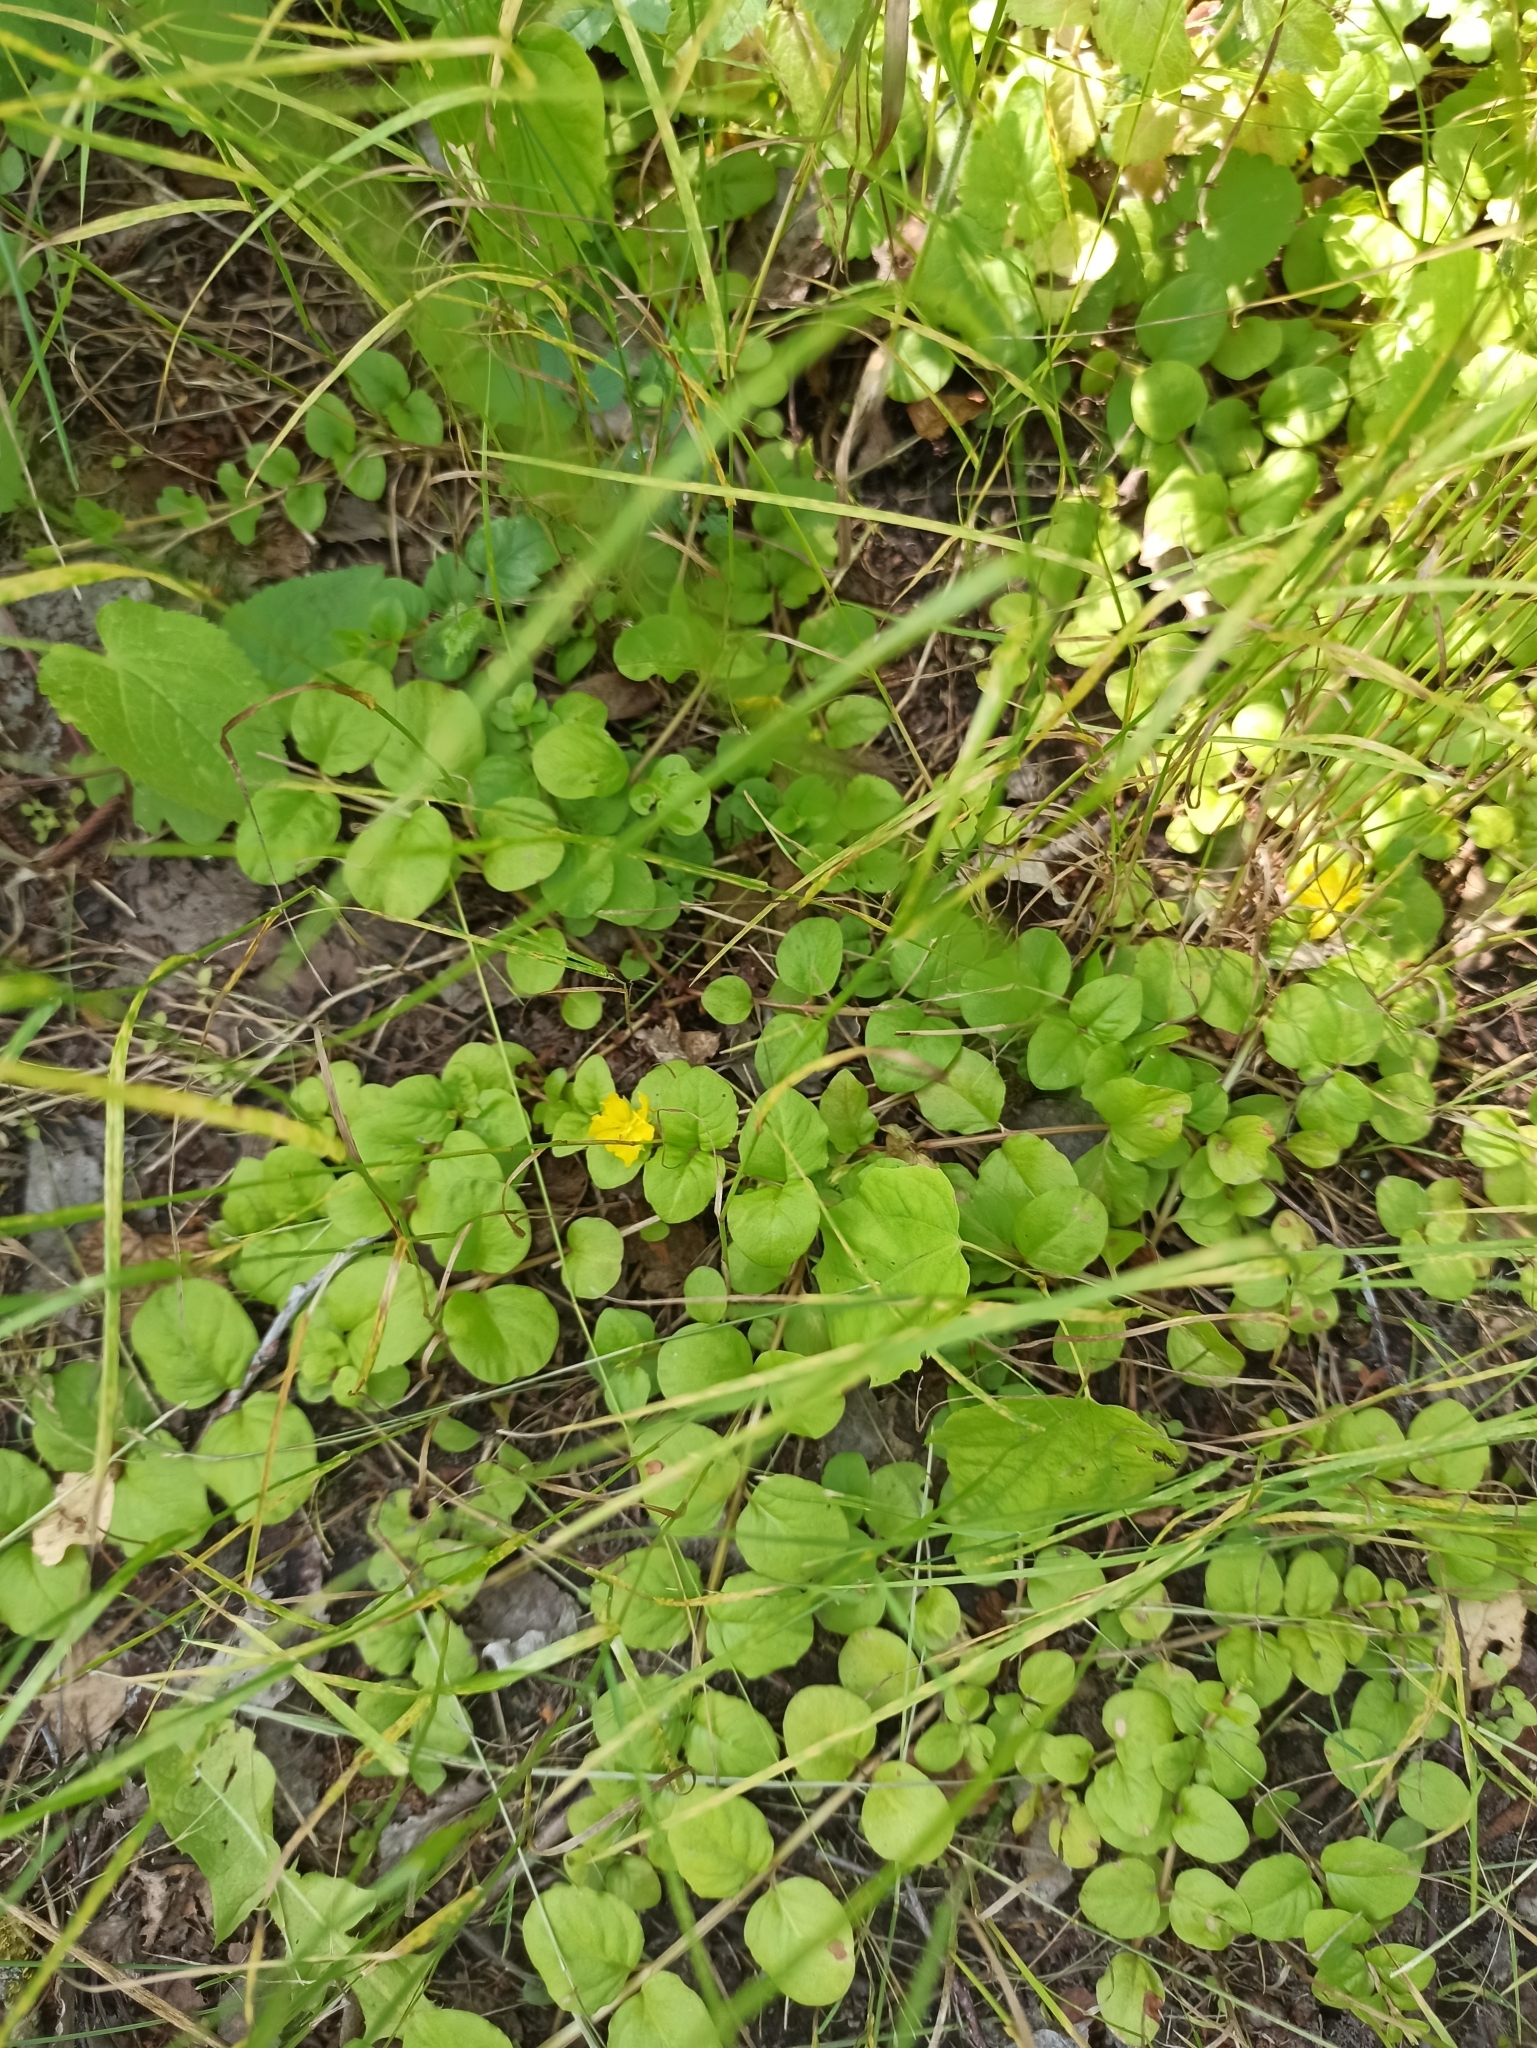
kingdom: Plantae
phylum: Tracheophyta
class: Magnoliopsida
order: Ericales
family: Primulaceae
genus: Lysimachia
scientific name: Lysimachia nummularia
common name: Moneywort
